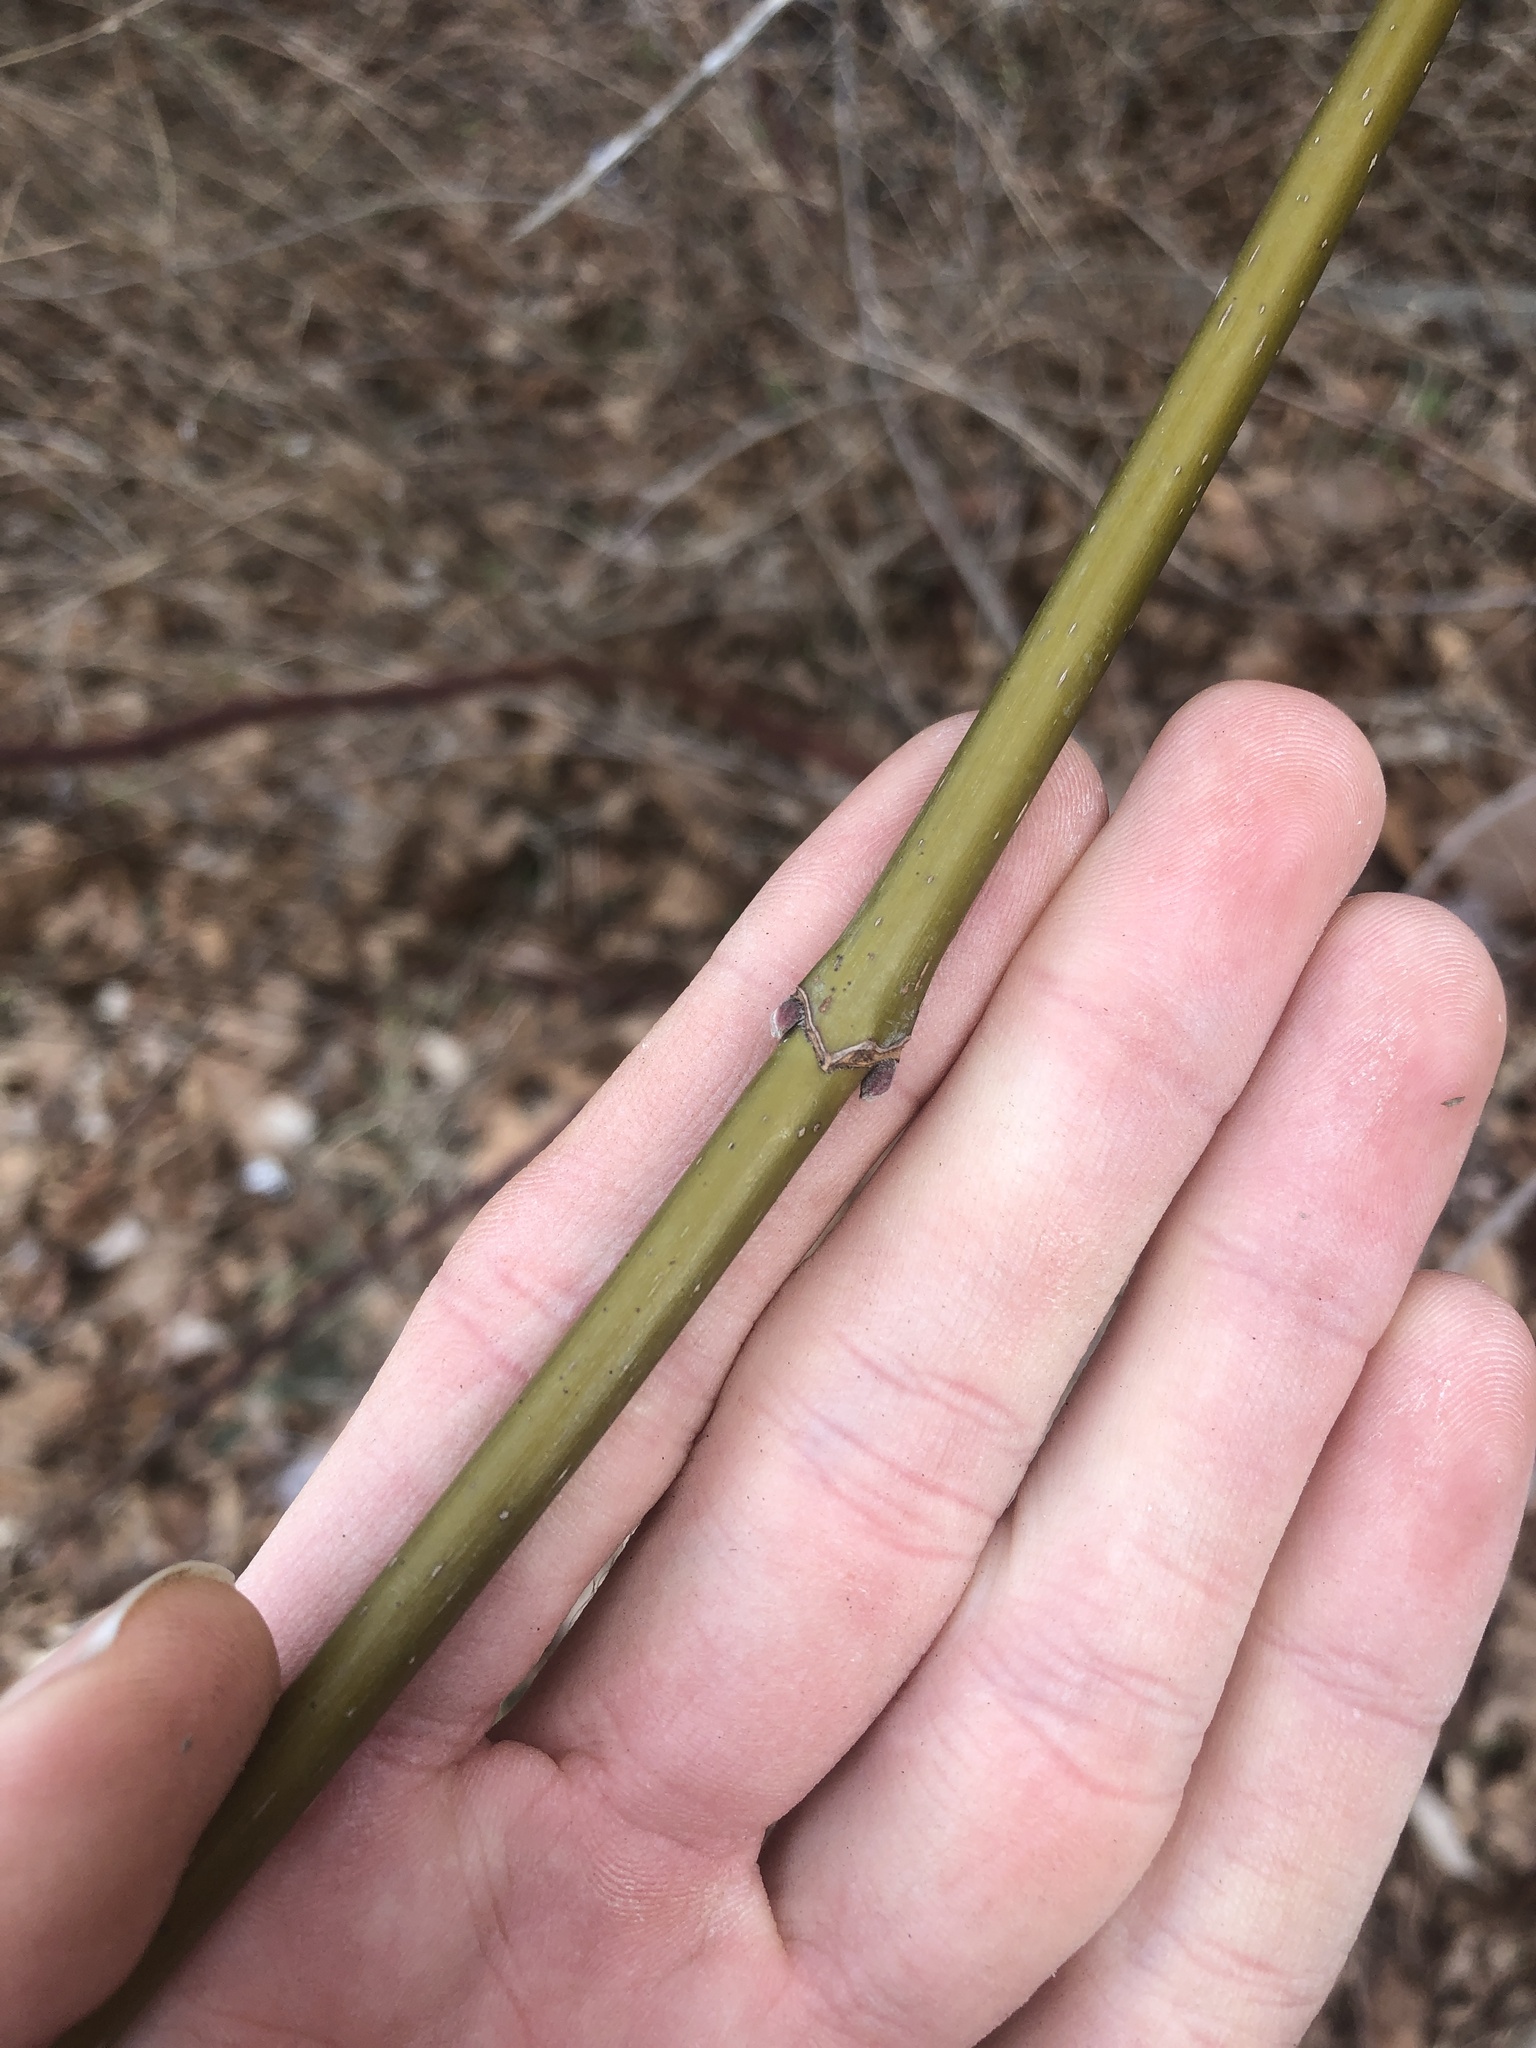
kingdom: Plantae
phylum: Tracheophyta
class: Magnoliopsida
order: Sapindales
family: Sapindaceae
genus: Acer
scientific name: Acer negundo
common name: Ashleaf maple
